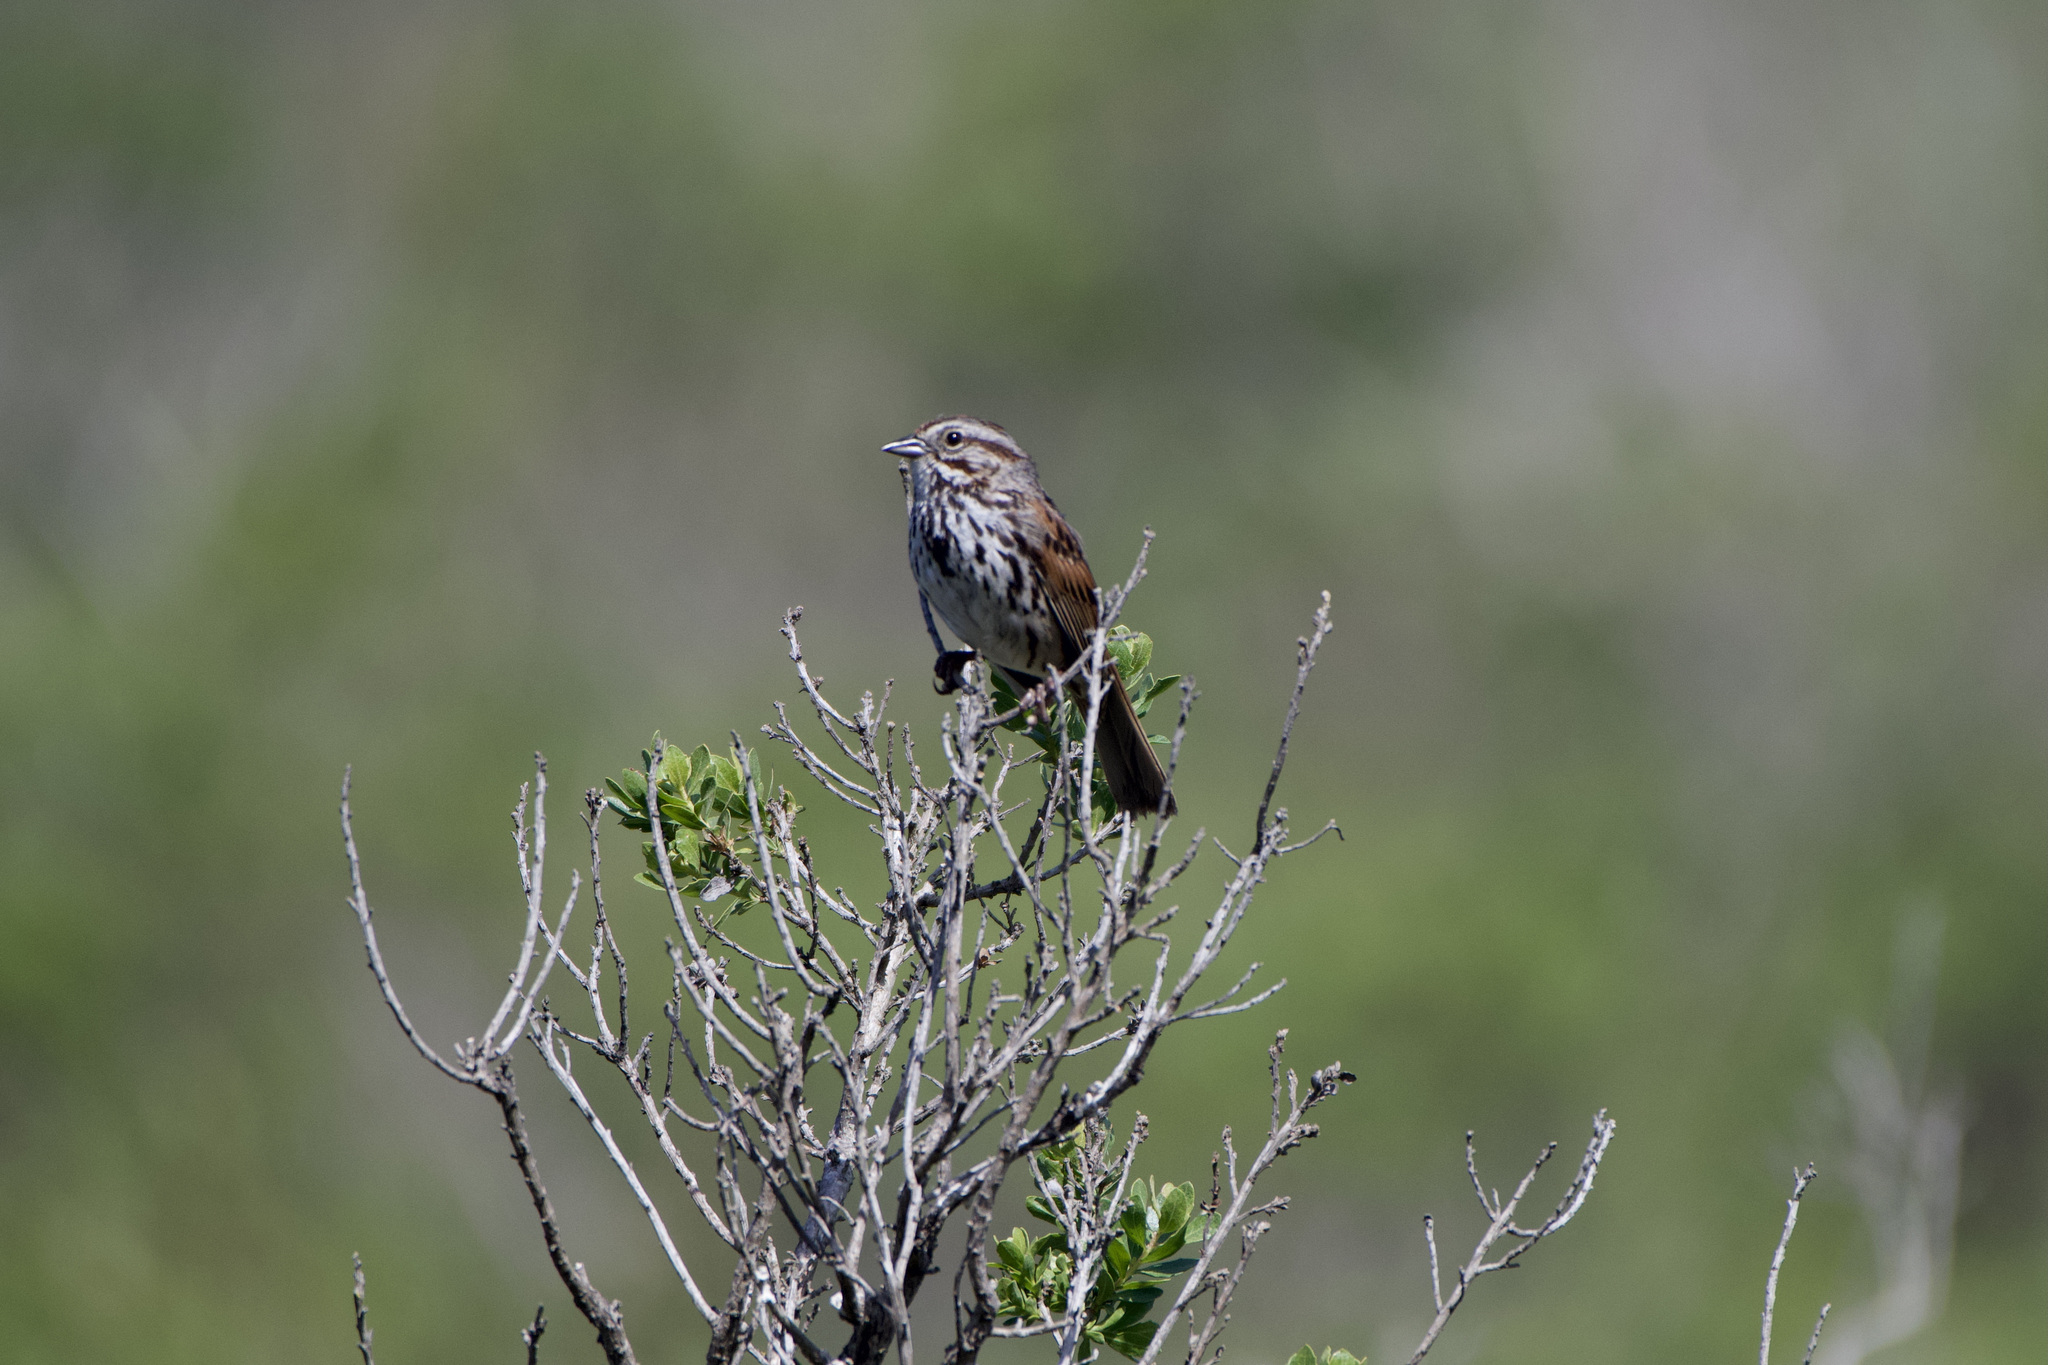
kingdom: Animalia
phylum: Chordata
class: Aves
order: Passeriformes
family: Passerellidae
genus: Melospiza
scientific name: Melospiza melodia
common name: Song sparrow
